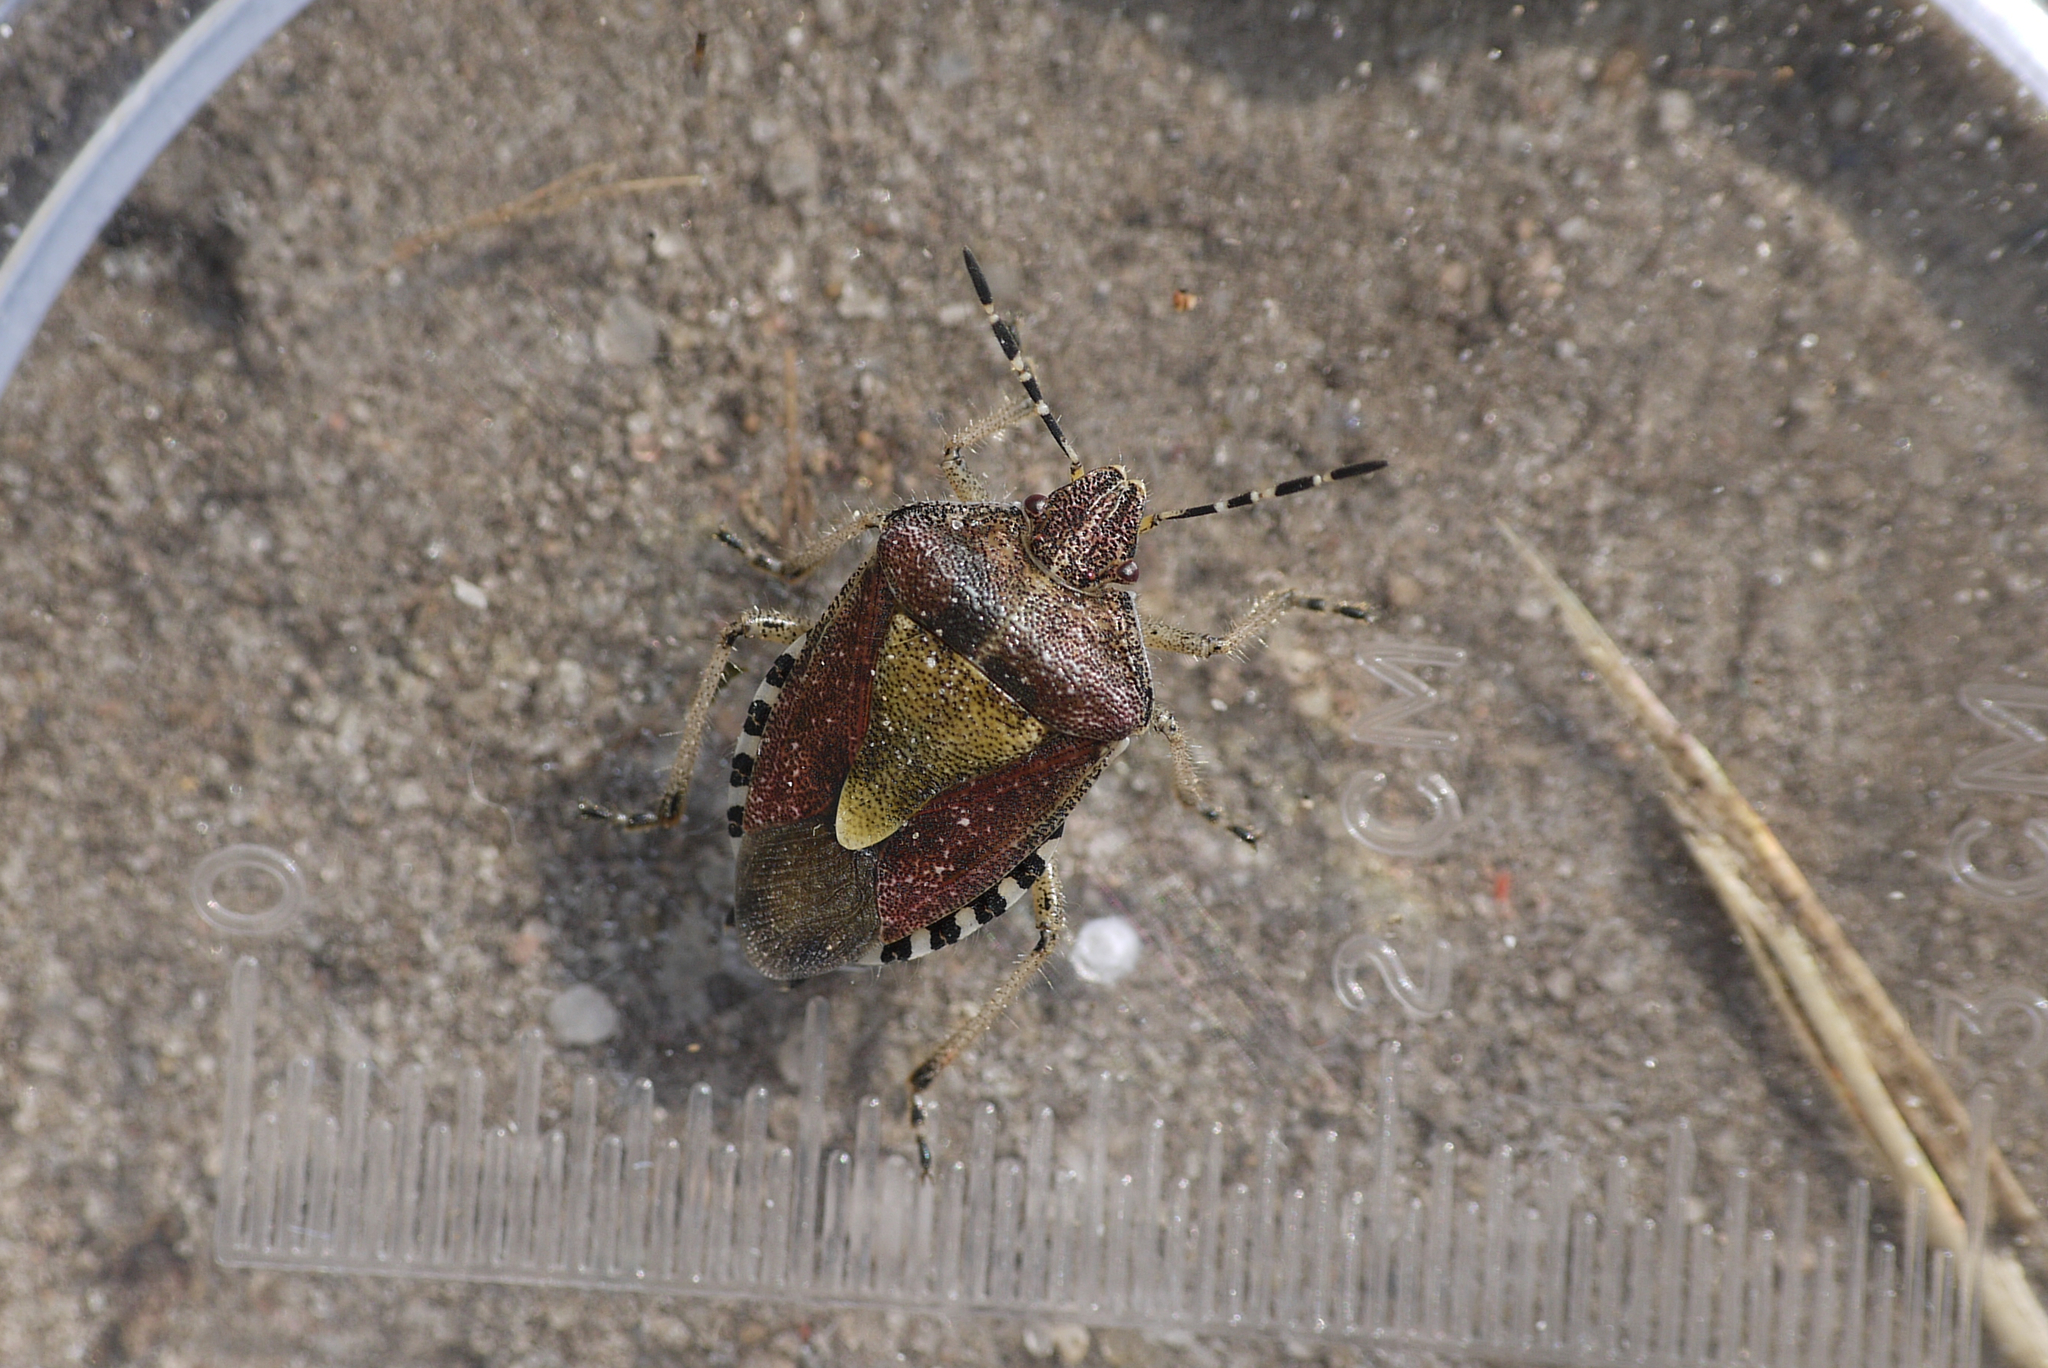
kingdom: Animalia
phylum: Arthropoda
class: Insecta
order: Hemiptera
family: Pentatomidae
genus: Dolycoris
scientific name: Dolycoris baccarum
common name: Sloe bug
